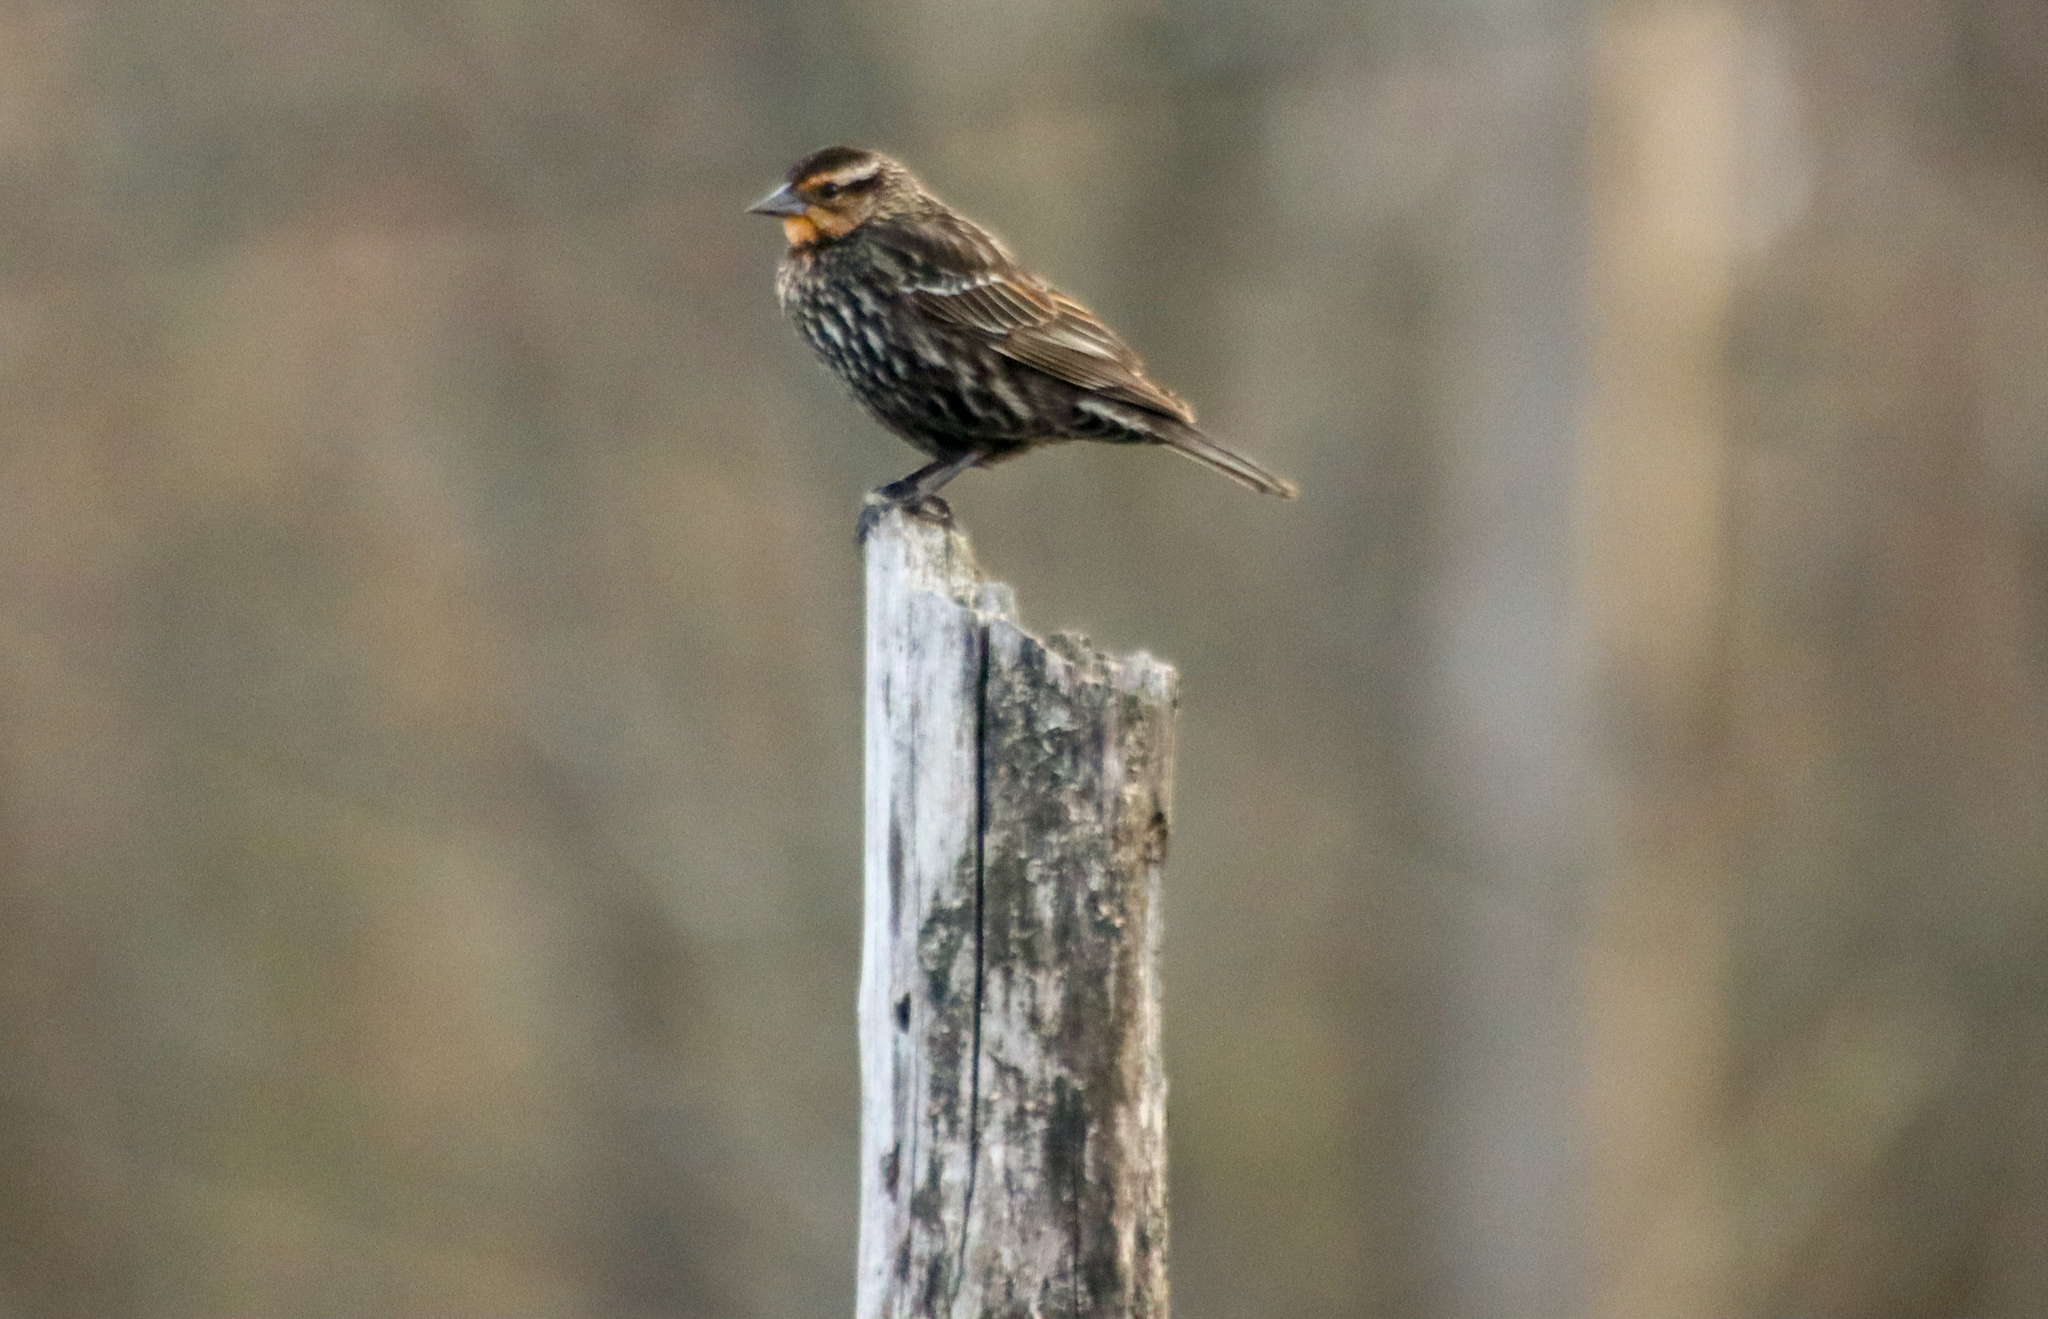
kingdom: Animalia
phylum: Chordata
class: Aves
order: Passeriformes
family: Icteridae
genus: Agelaius
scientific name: Agelaius phoeniceus
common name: Red-winged blackbird
